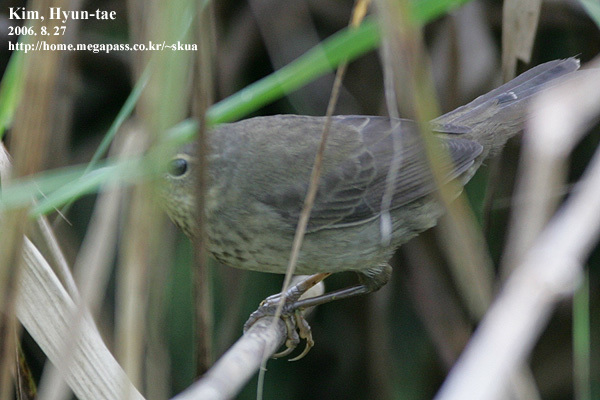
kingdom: Animalia
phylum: Chordata
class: Aves
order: Passeriformes
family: Locustellidae
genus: Locustella
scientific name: Locustella ochotensis
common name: Middendorff's grasshopper-warbler
